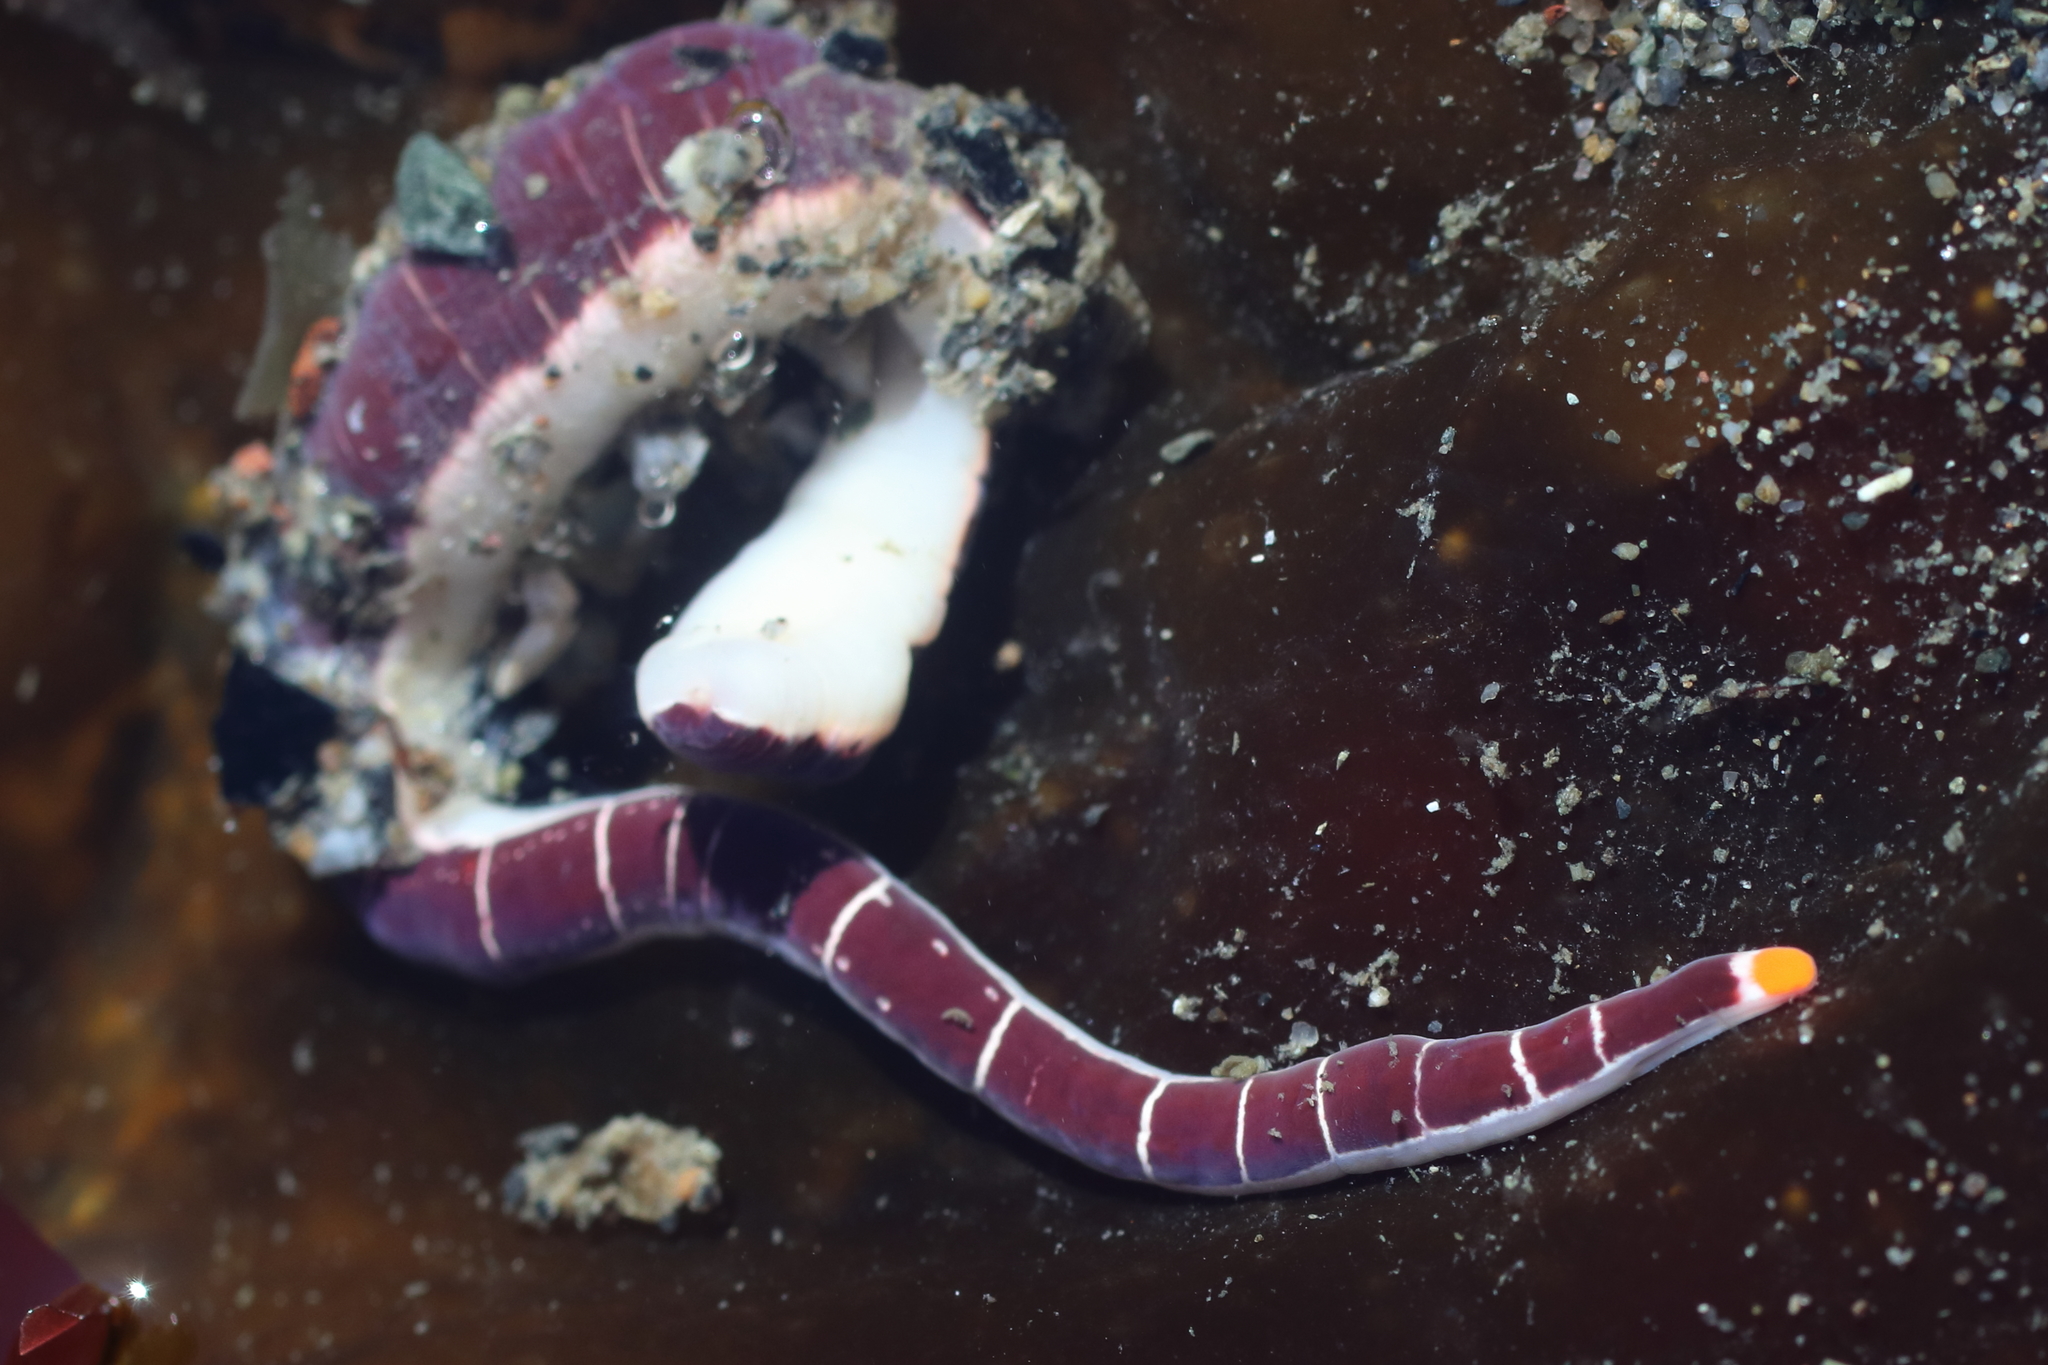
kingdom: Animalia
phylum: Nemertea
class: Pilidiophora
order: Heteronemertea
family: Lineidae
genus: Micrura
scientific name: Micrura verrilli
